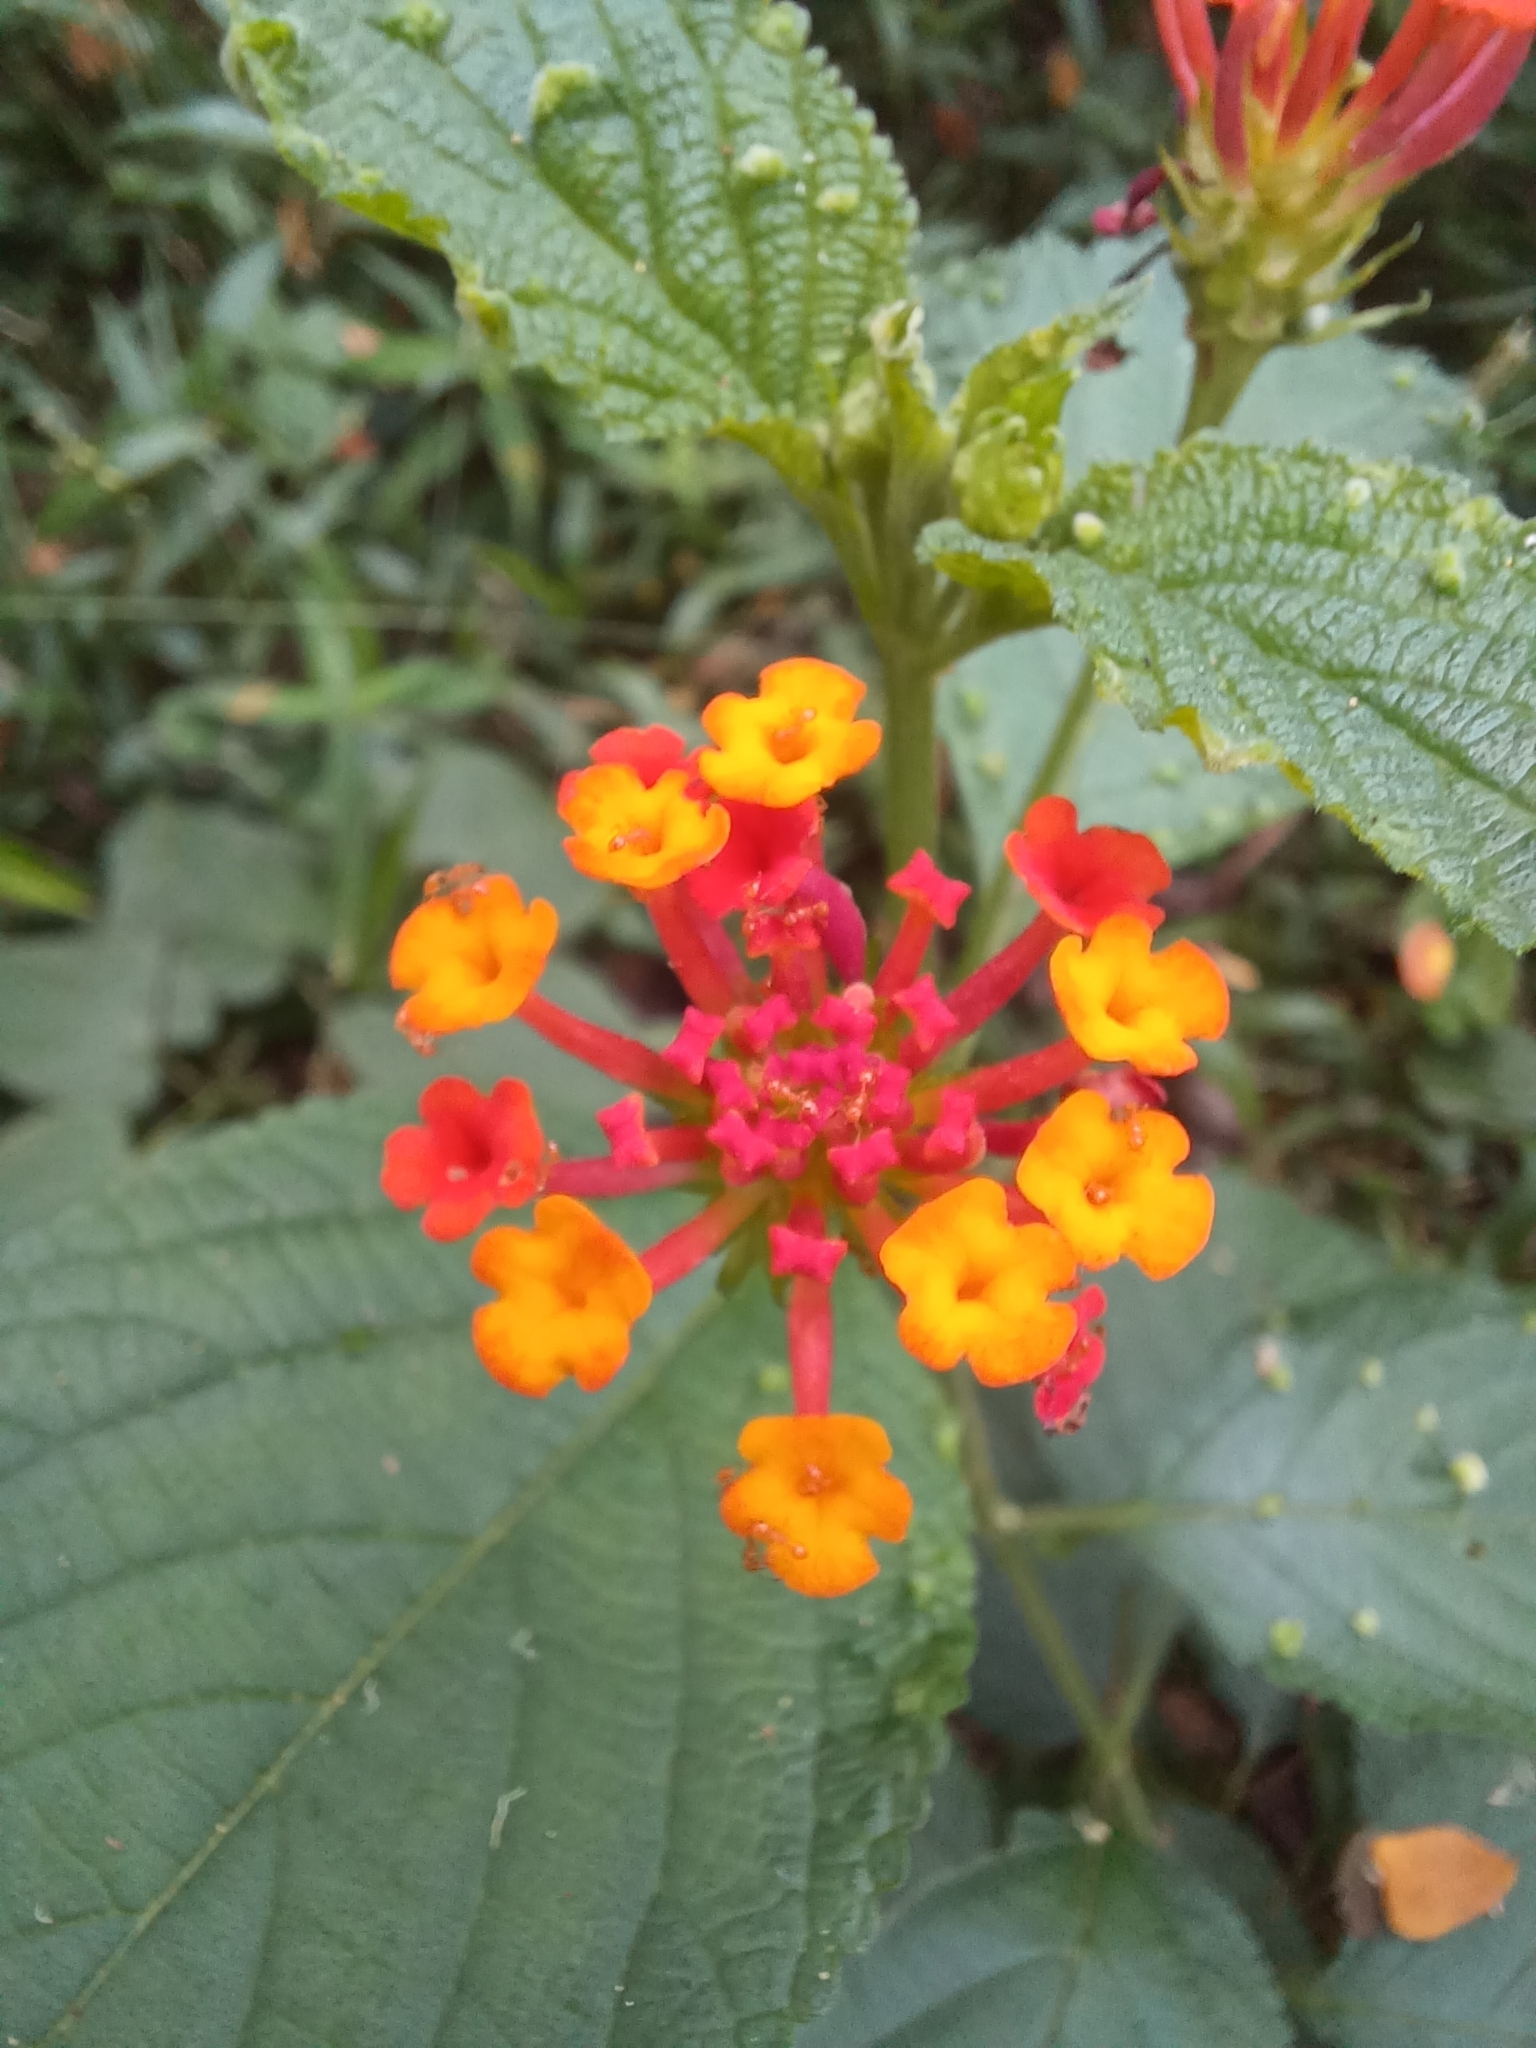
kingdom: Plantae
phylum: Tracheophyta
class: Magnoliopsida
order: Lamiales
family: Verbenaceae
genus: Lantana
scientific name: Lantana camara
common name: Lantana
